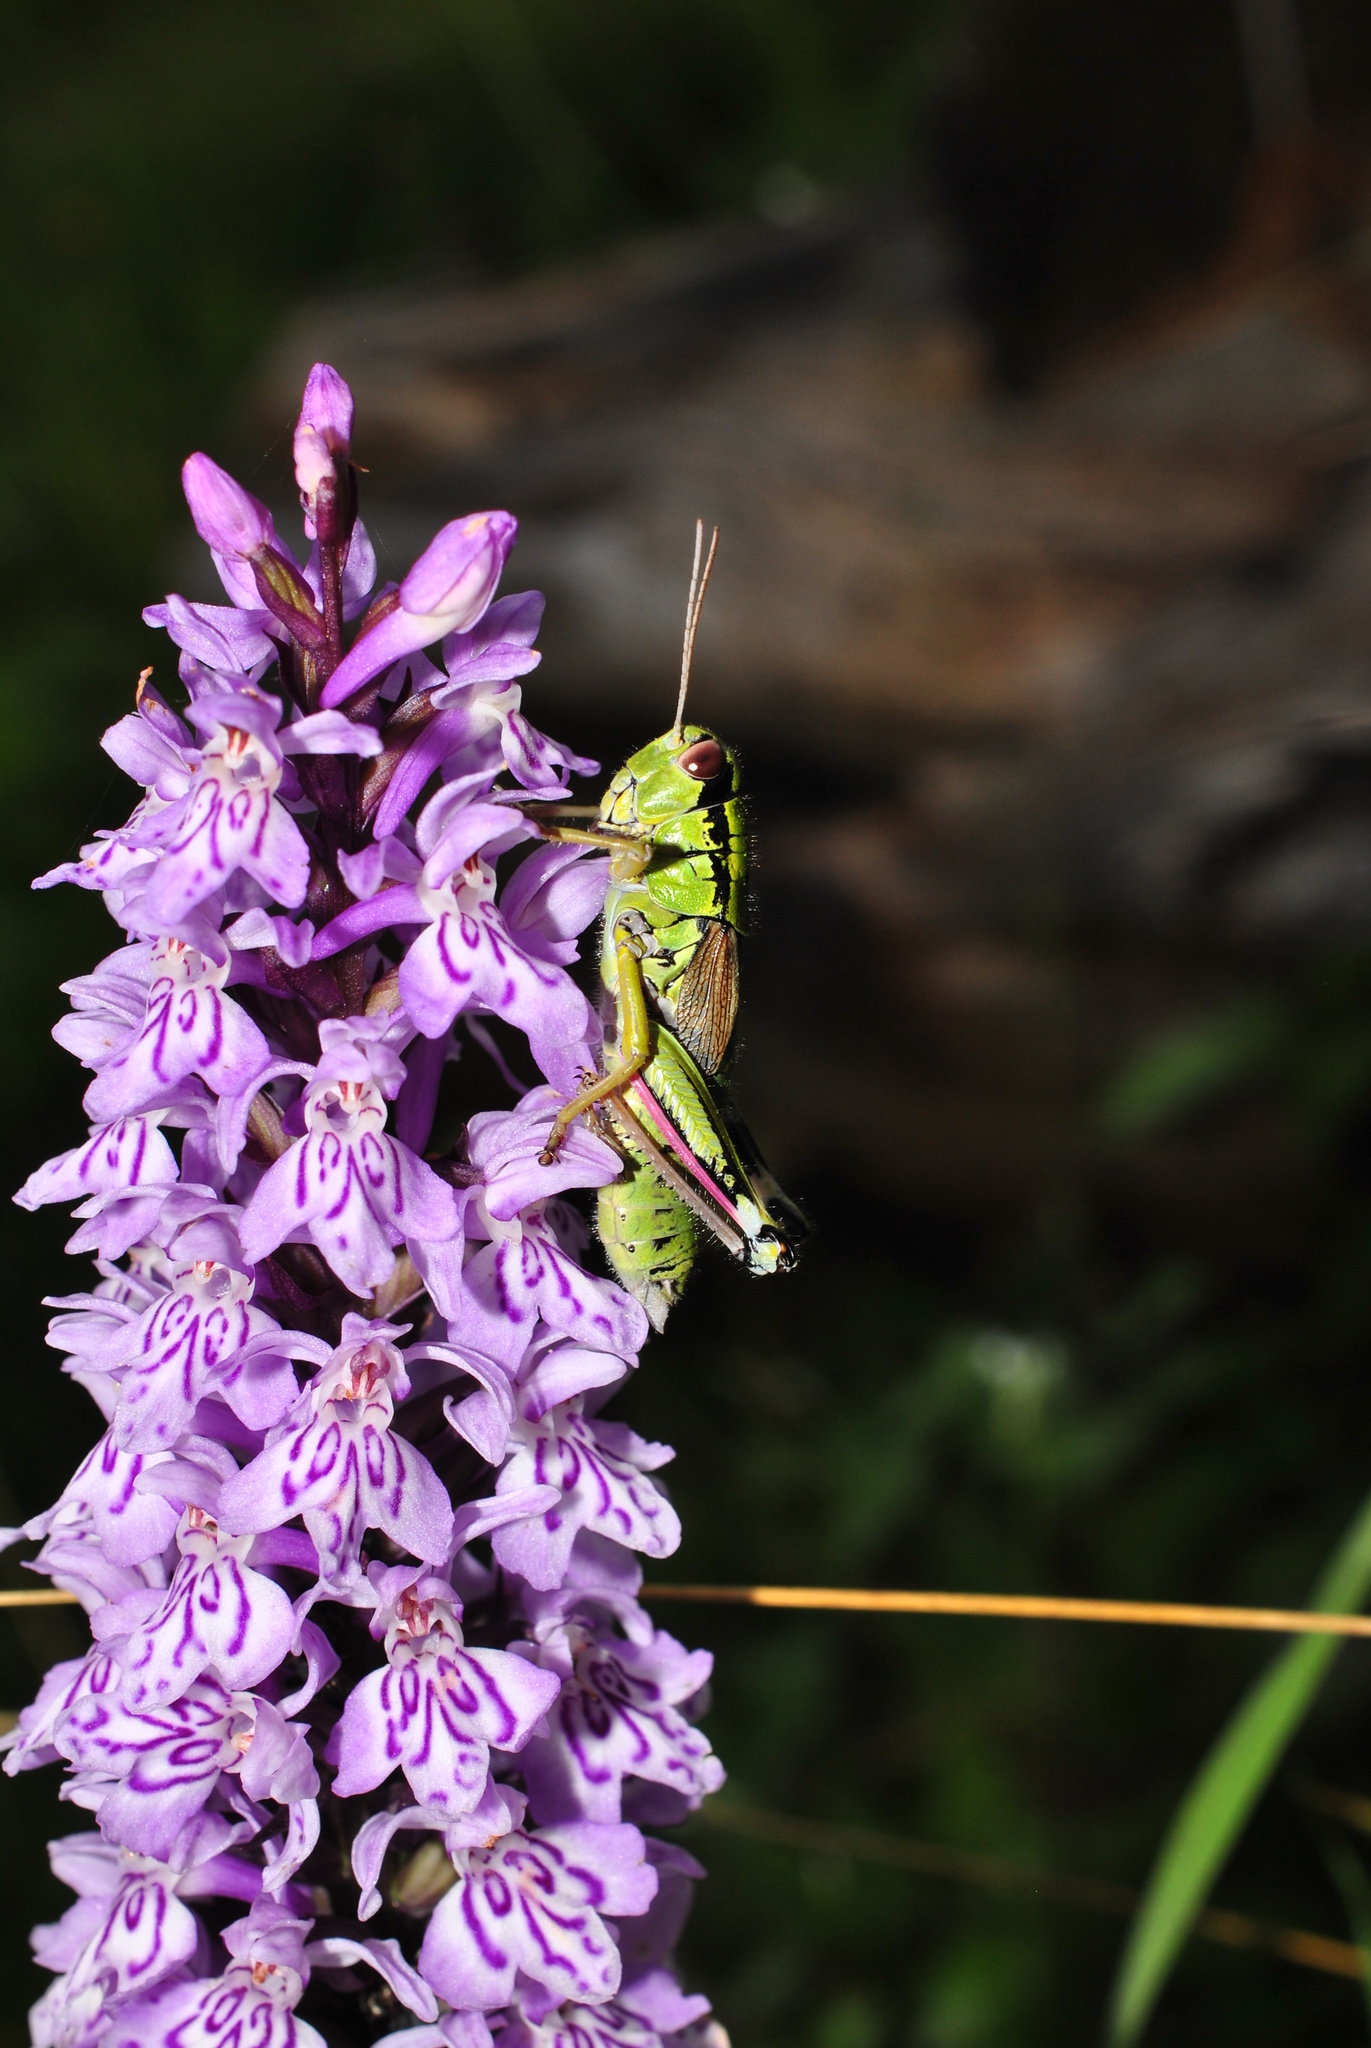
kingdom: Animalia
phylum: Arthropoda
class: Insecta
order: Orthoptera
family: Acrididae
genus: Miramella
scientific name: Miramella alpina
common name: Green mountain grasshopper
